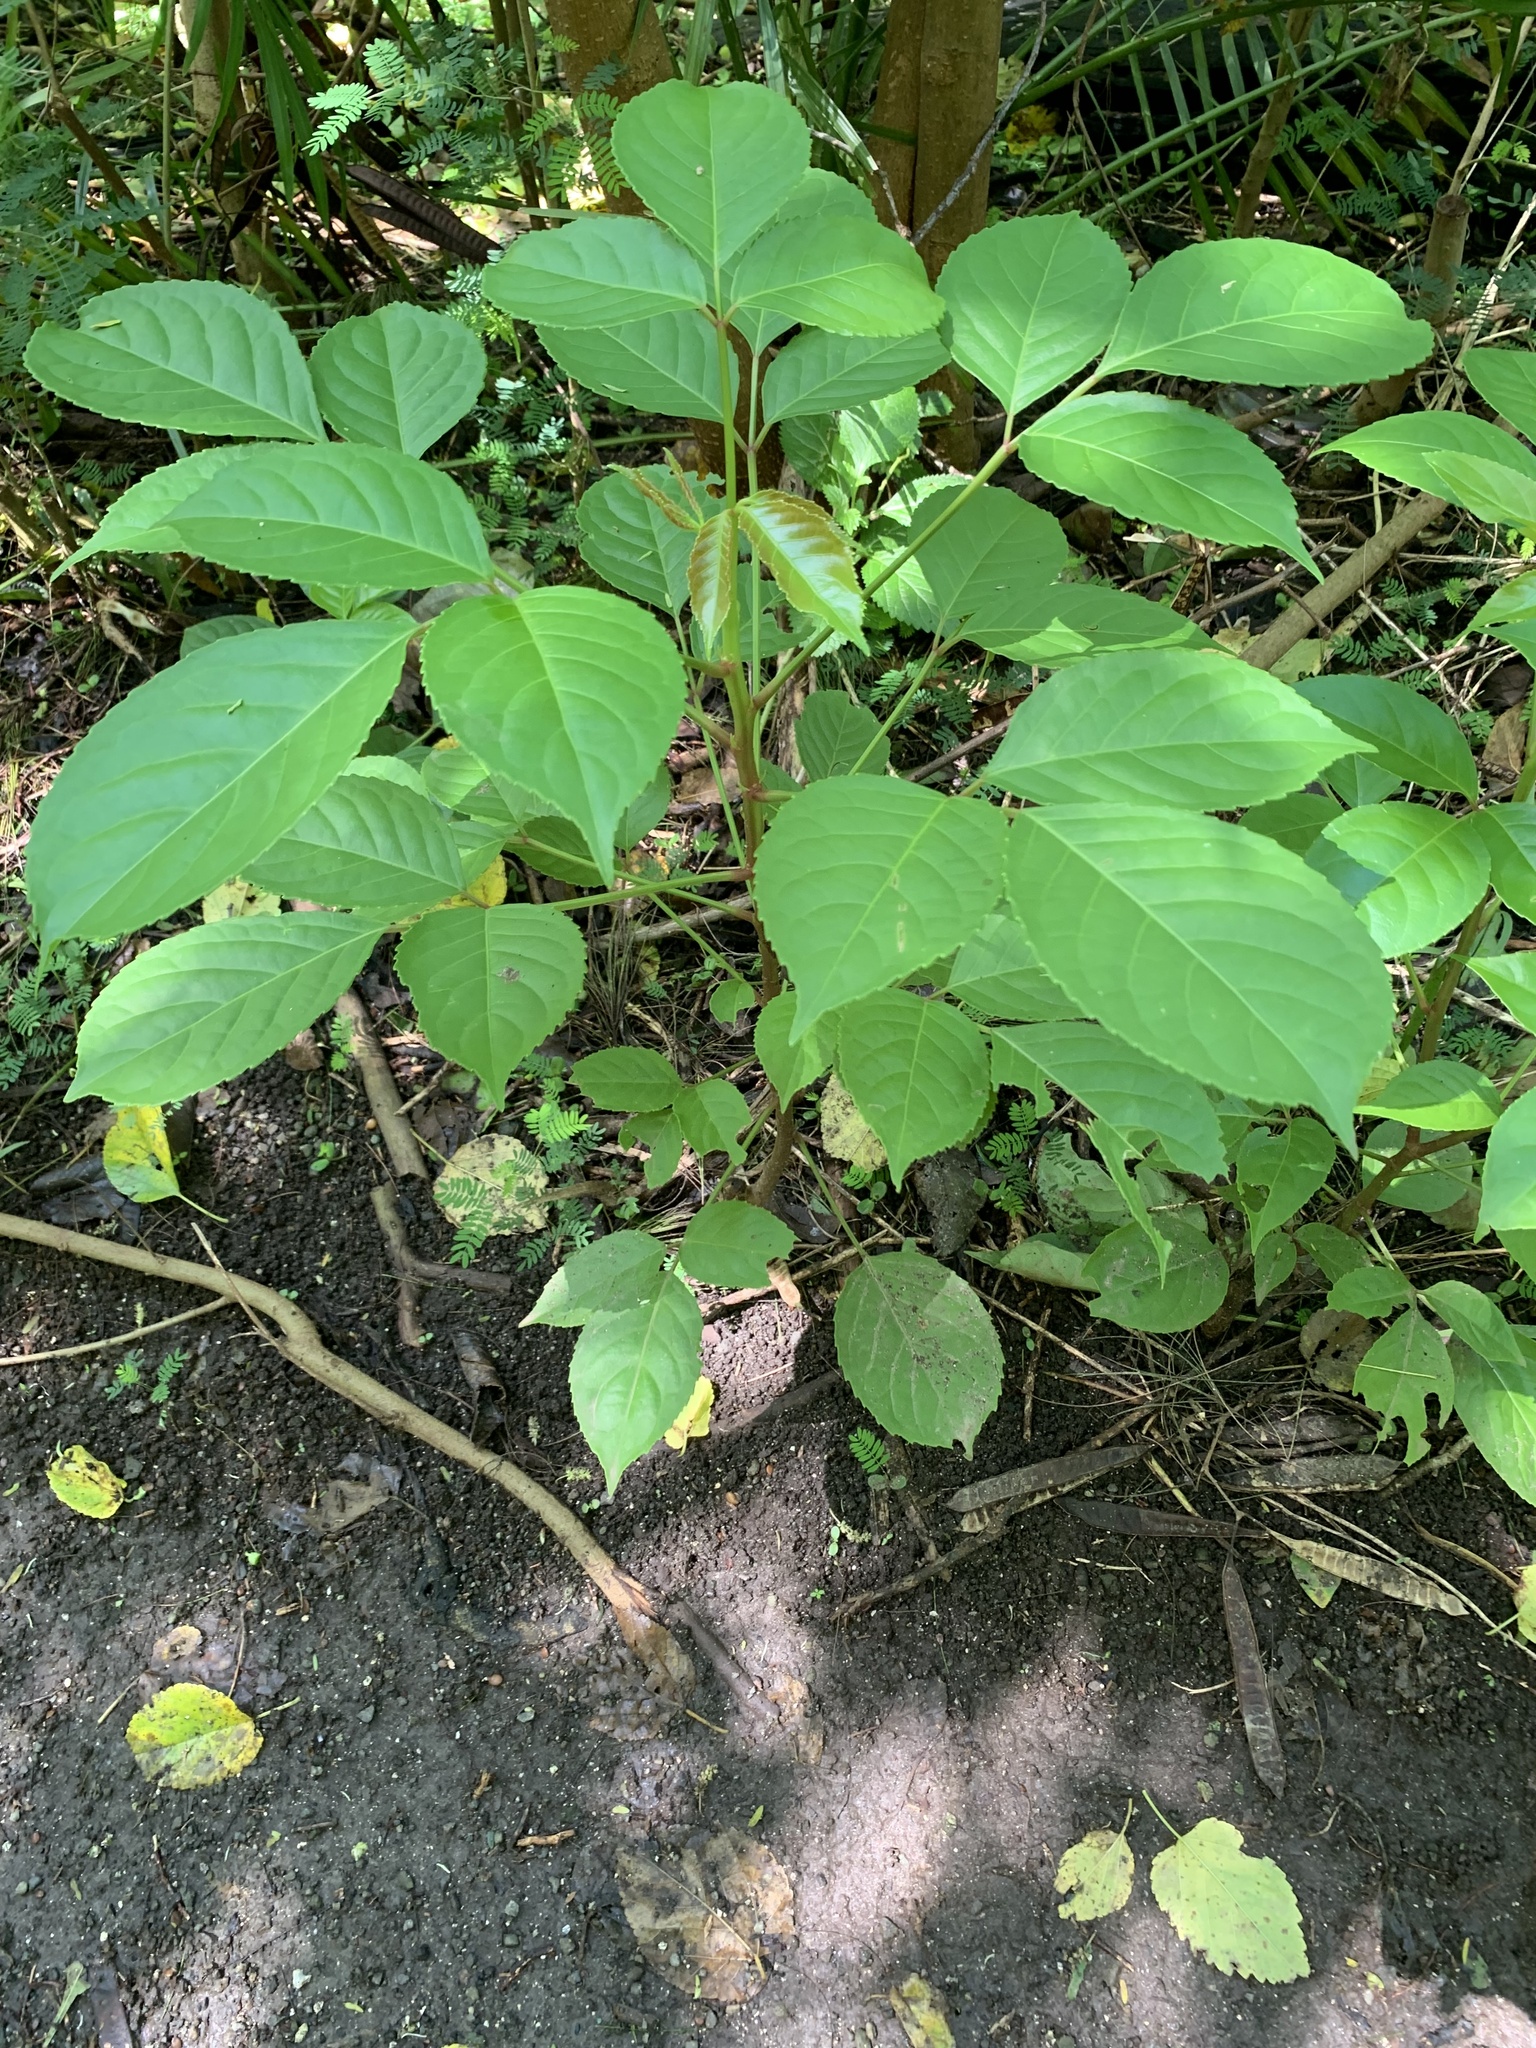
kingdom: Plantae
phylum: Tracheophyta
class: Magnoliopsida
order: Malpighiales
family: Phyllanthaceae
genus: Bischofia
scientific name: Bischofia javanica
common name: Javanese bishopwood
